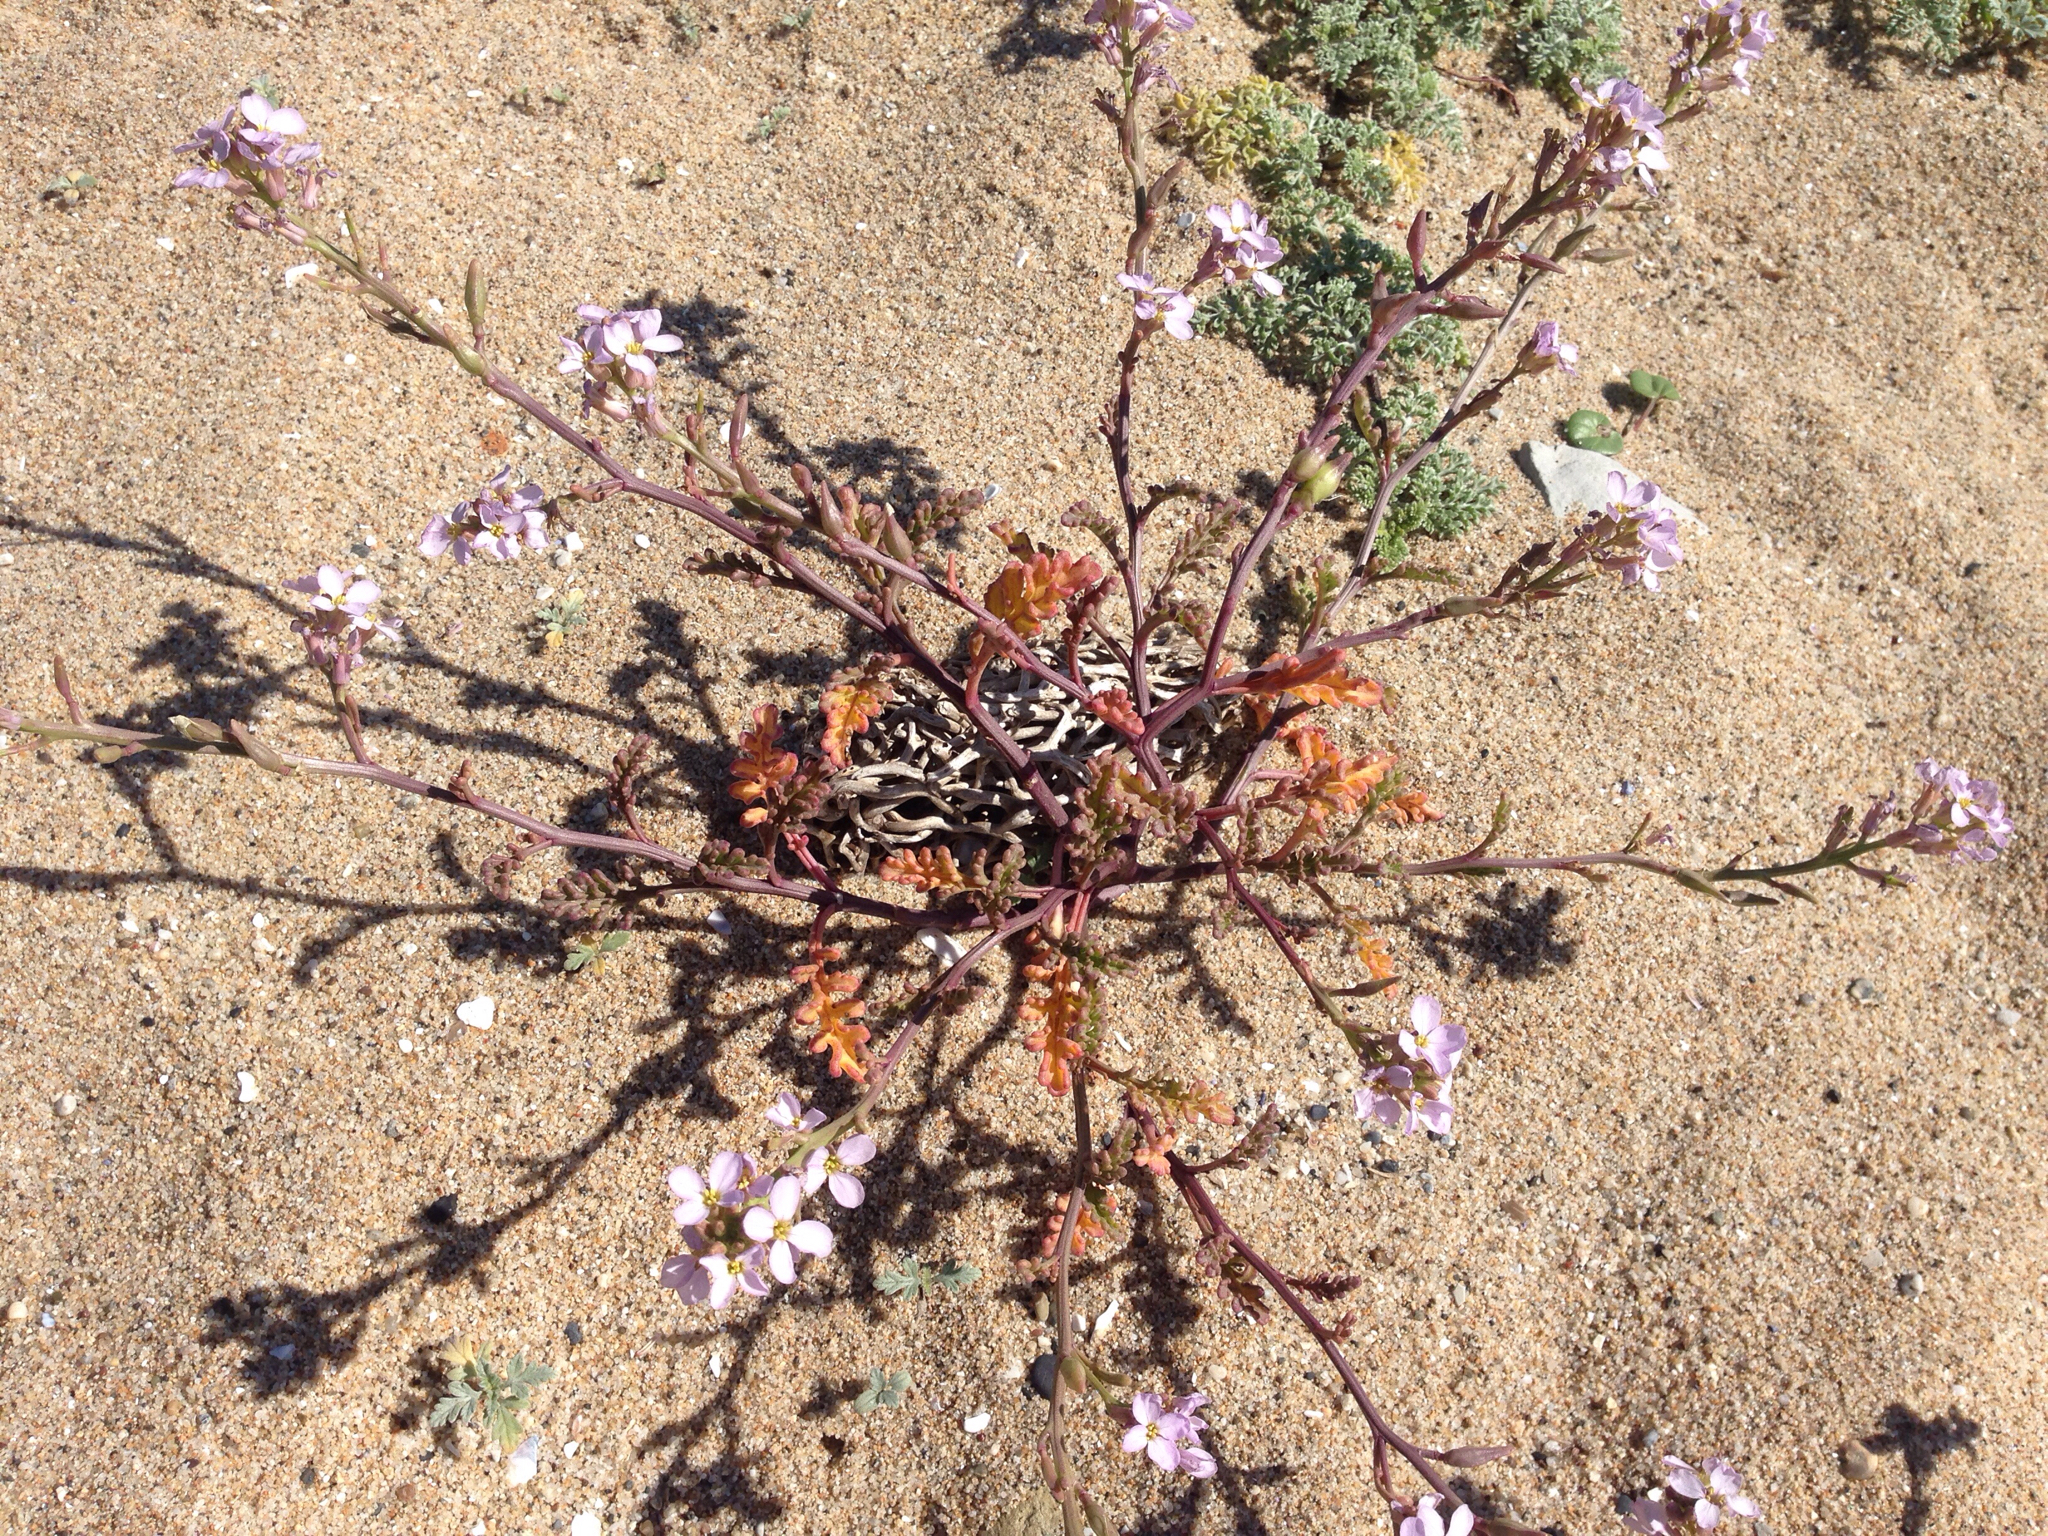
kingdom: Plantae
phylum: Tracheophyta
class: Magnoliopsida
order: Brassicales
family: Brassicaceae
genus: Cakile
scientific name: Cakile maritima
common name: Sea rocket
